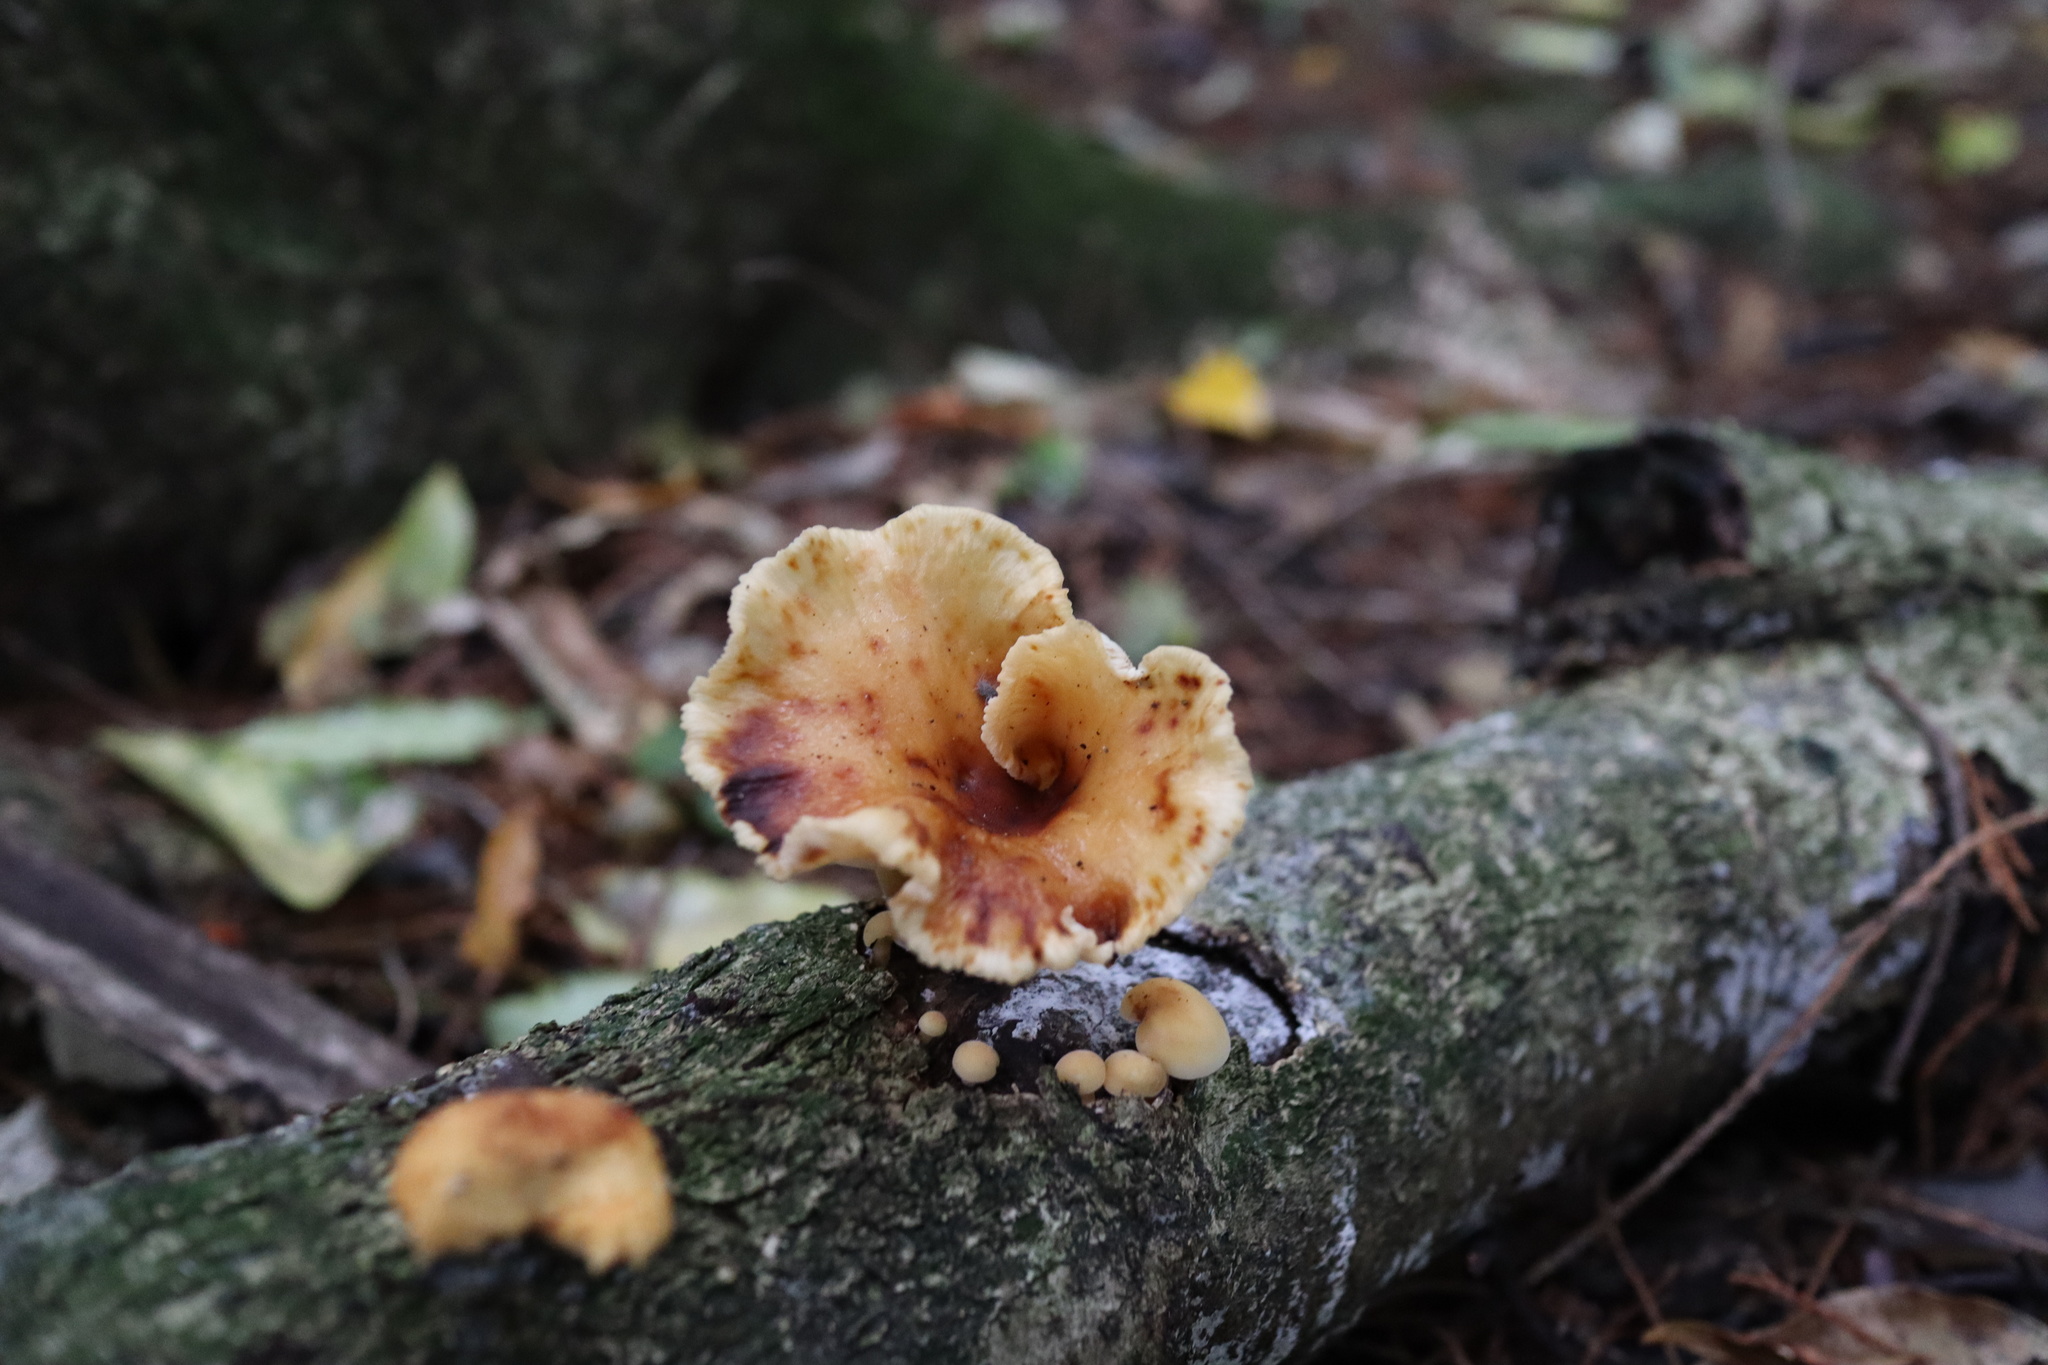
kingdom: Fungi
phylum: Basidiomycota
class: Agaricomycetes
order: Agaricales
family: Physalacriaceae
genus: Flammulina
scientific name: Flammulina velutipes
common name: Velvet shank
